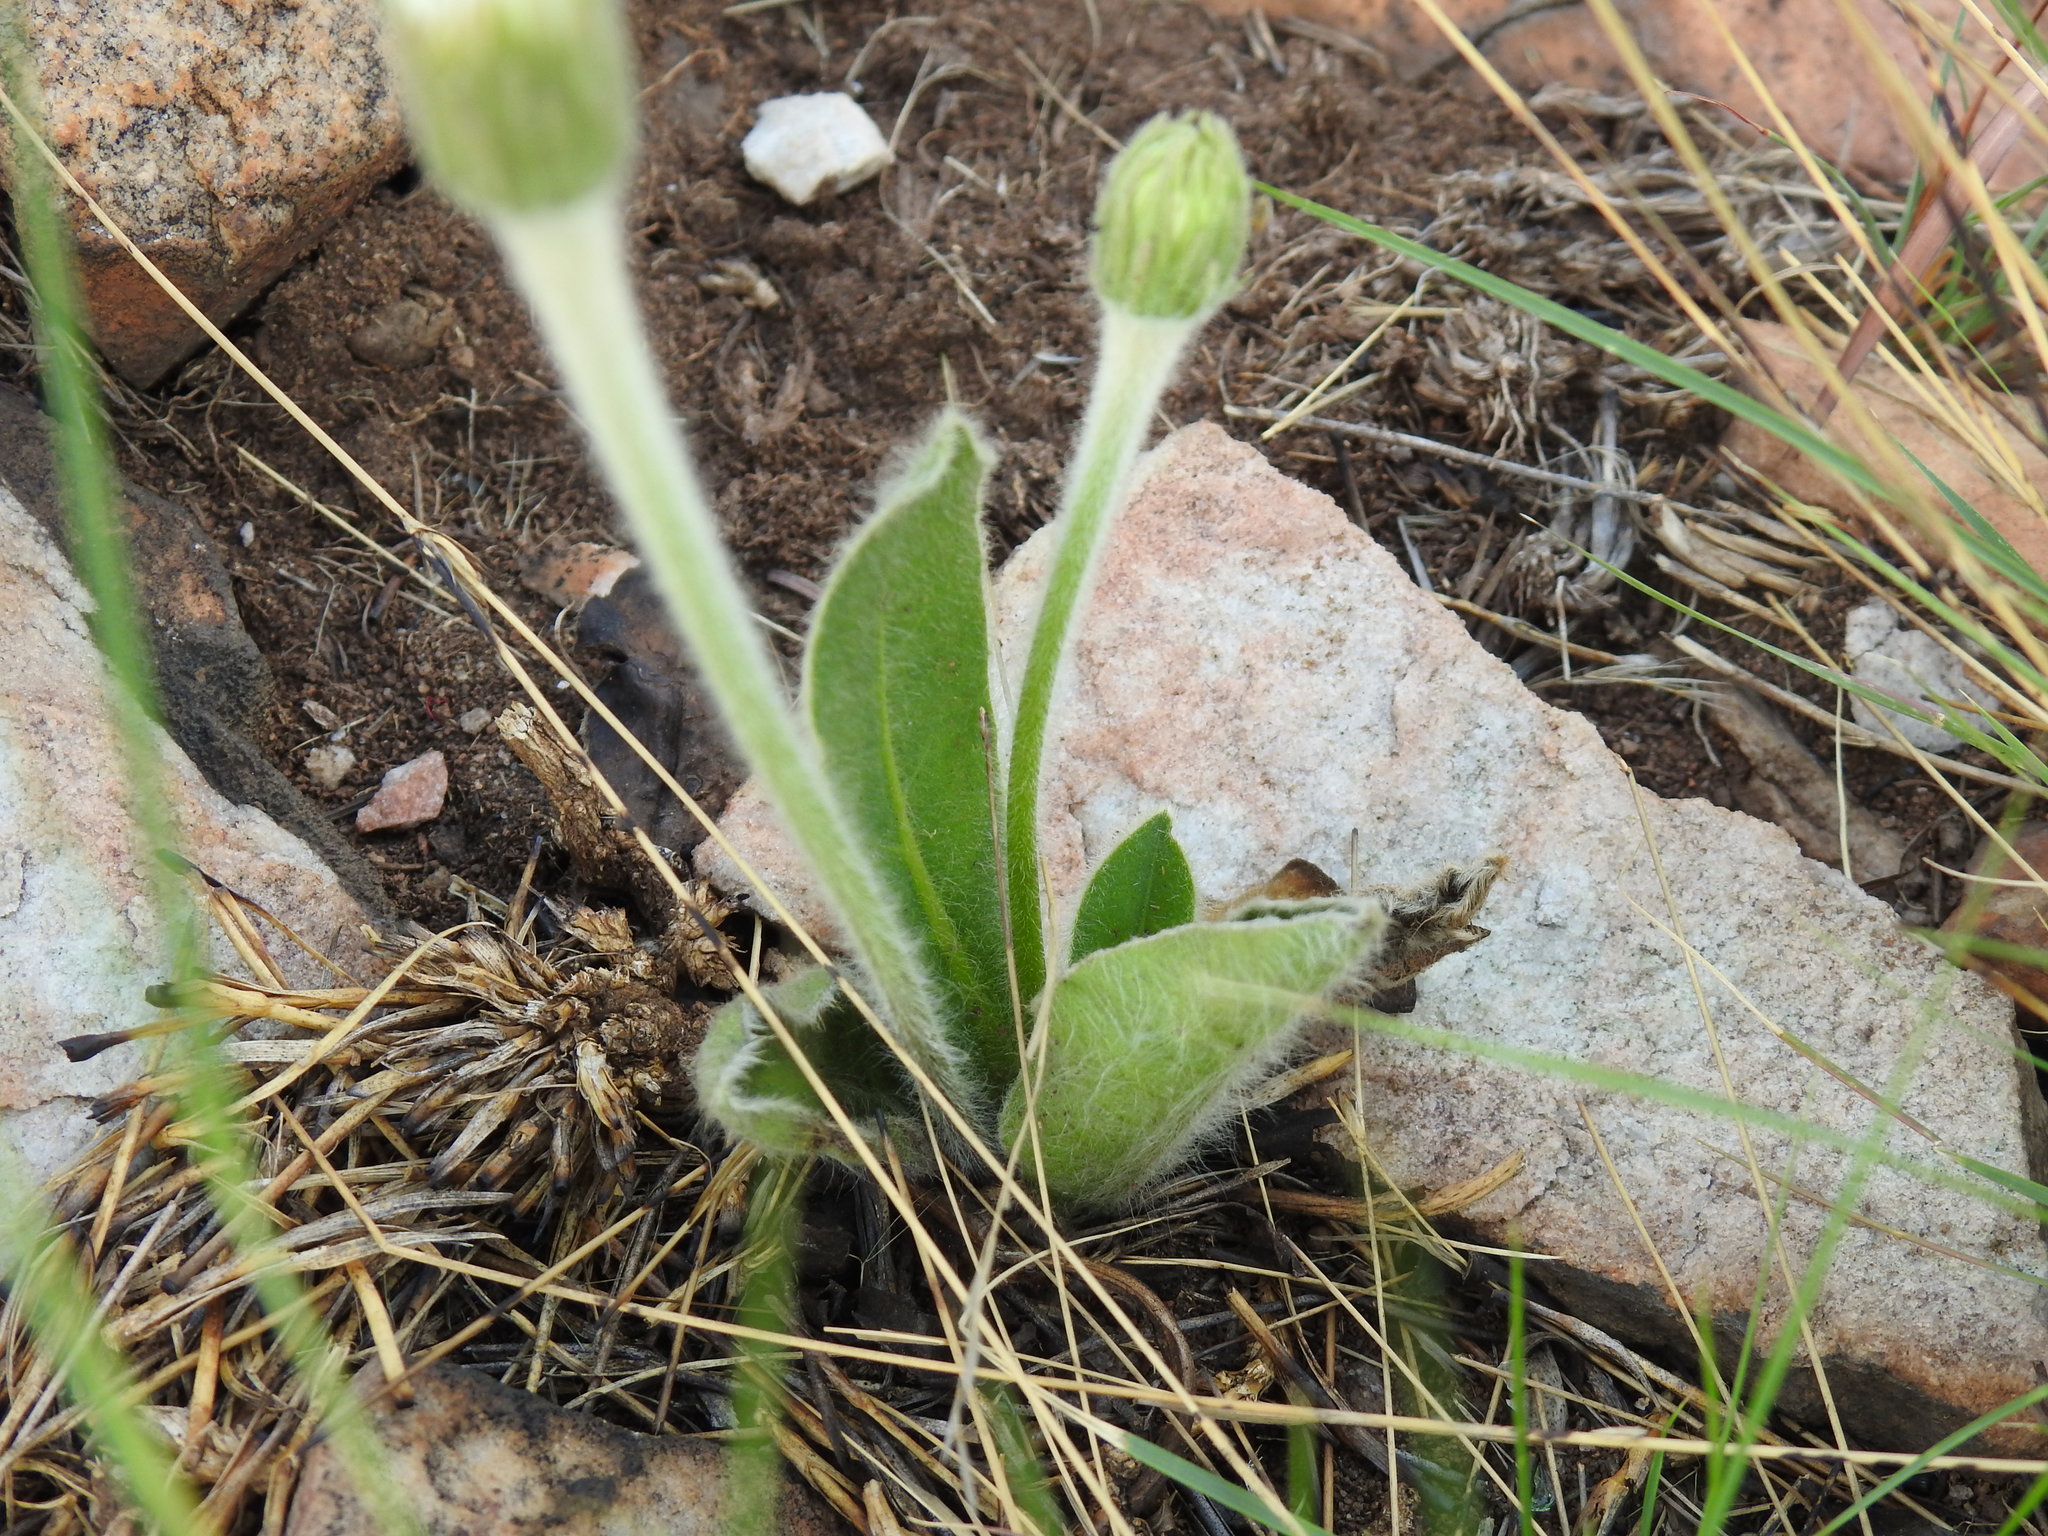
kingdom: Plantae
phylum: Tracheophyta
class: Magnoliopsida
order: Asterales
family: Asteraceae
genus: Piloselloides
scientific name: Piloselloides hirsuta
